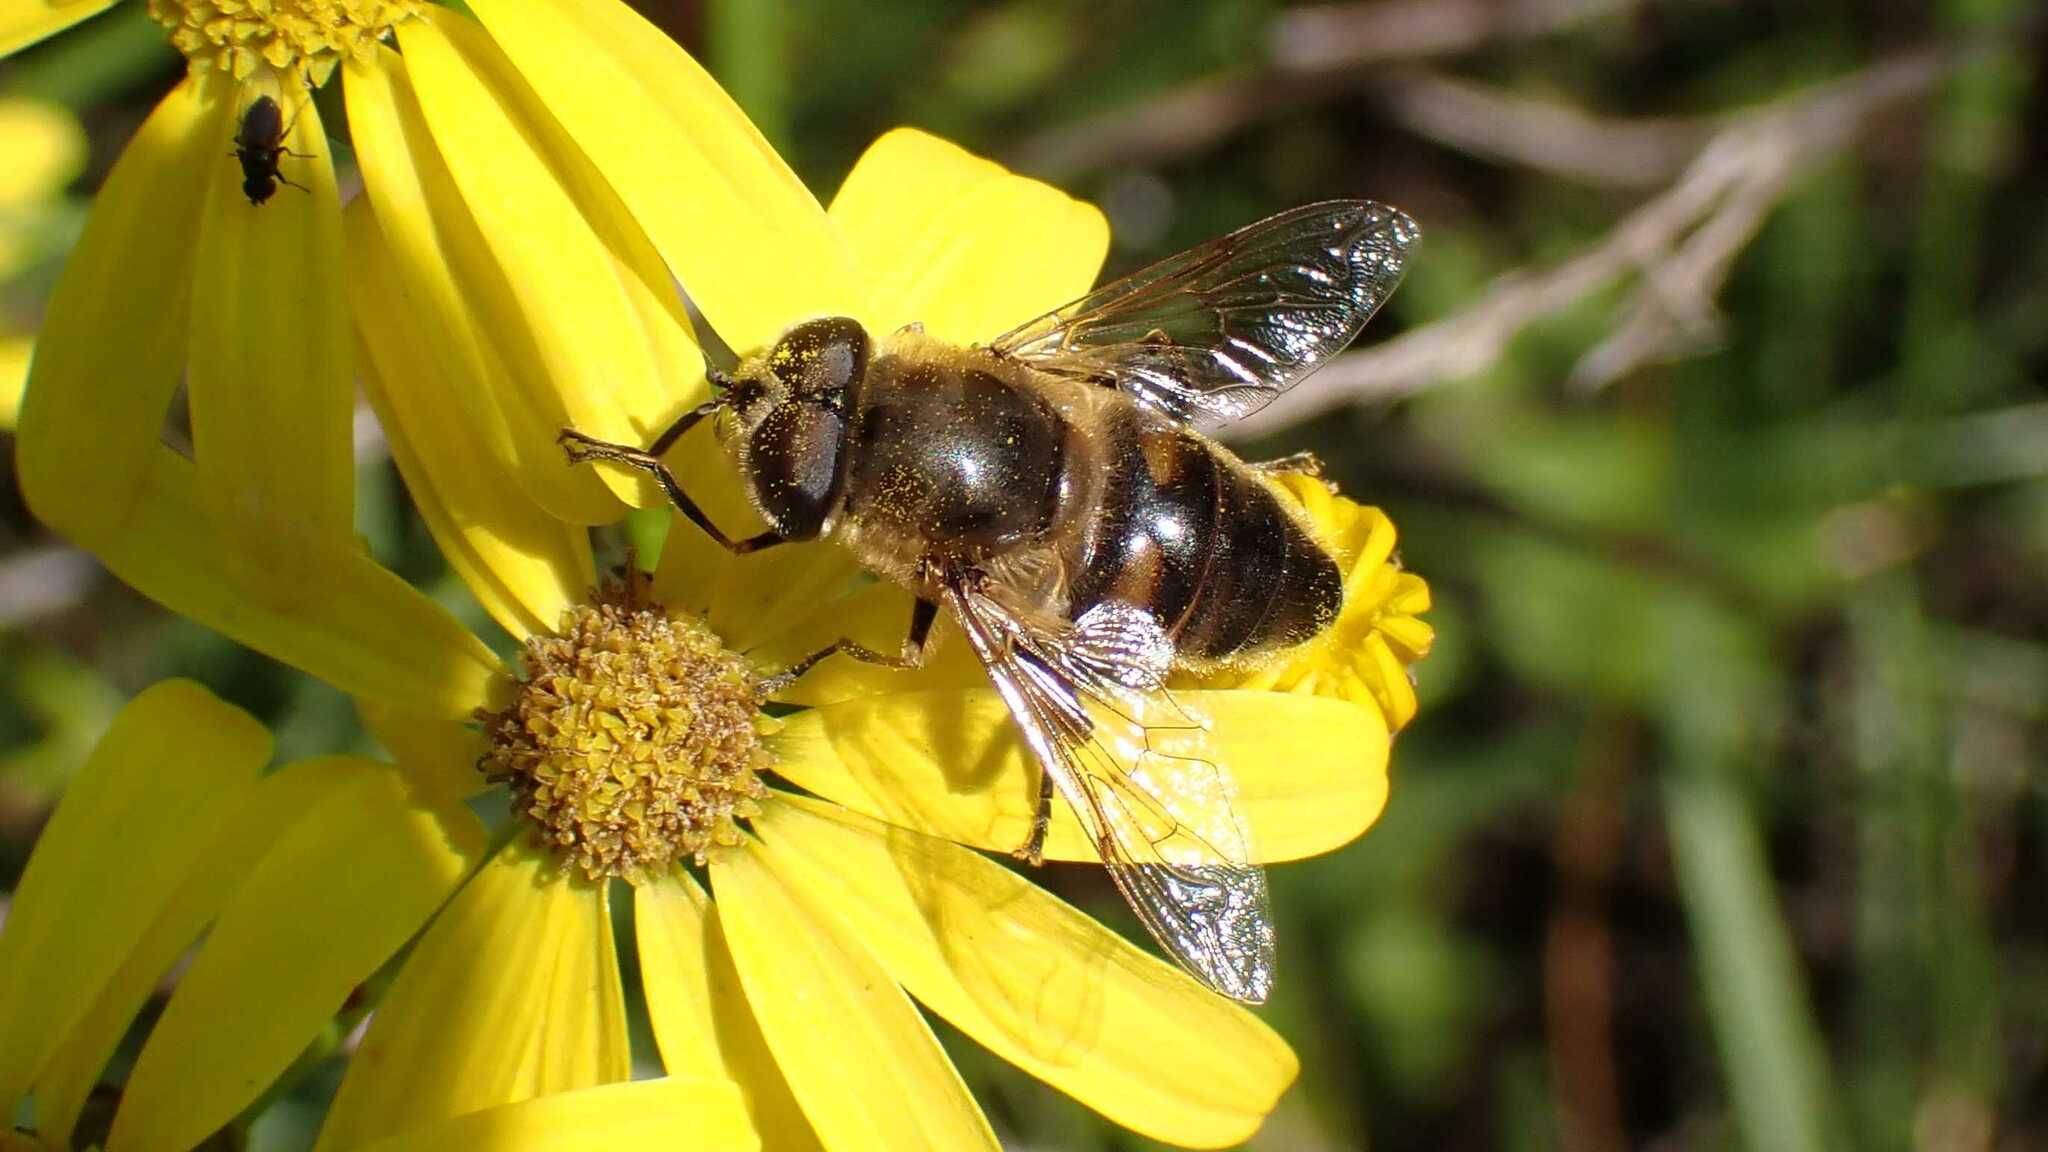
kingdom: Animalia
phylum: Arthropoda
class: Insecta
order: Diptera
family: Syrphidae
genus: Eristalis
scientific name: Eristalis tenax
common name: Drone fly
